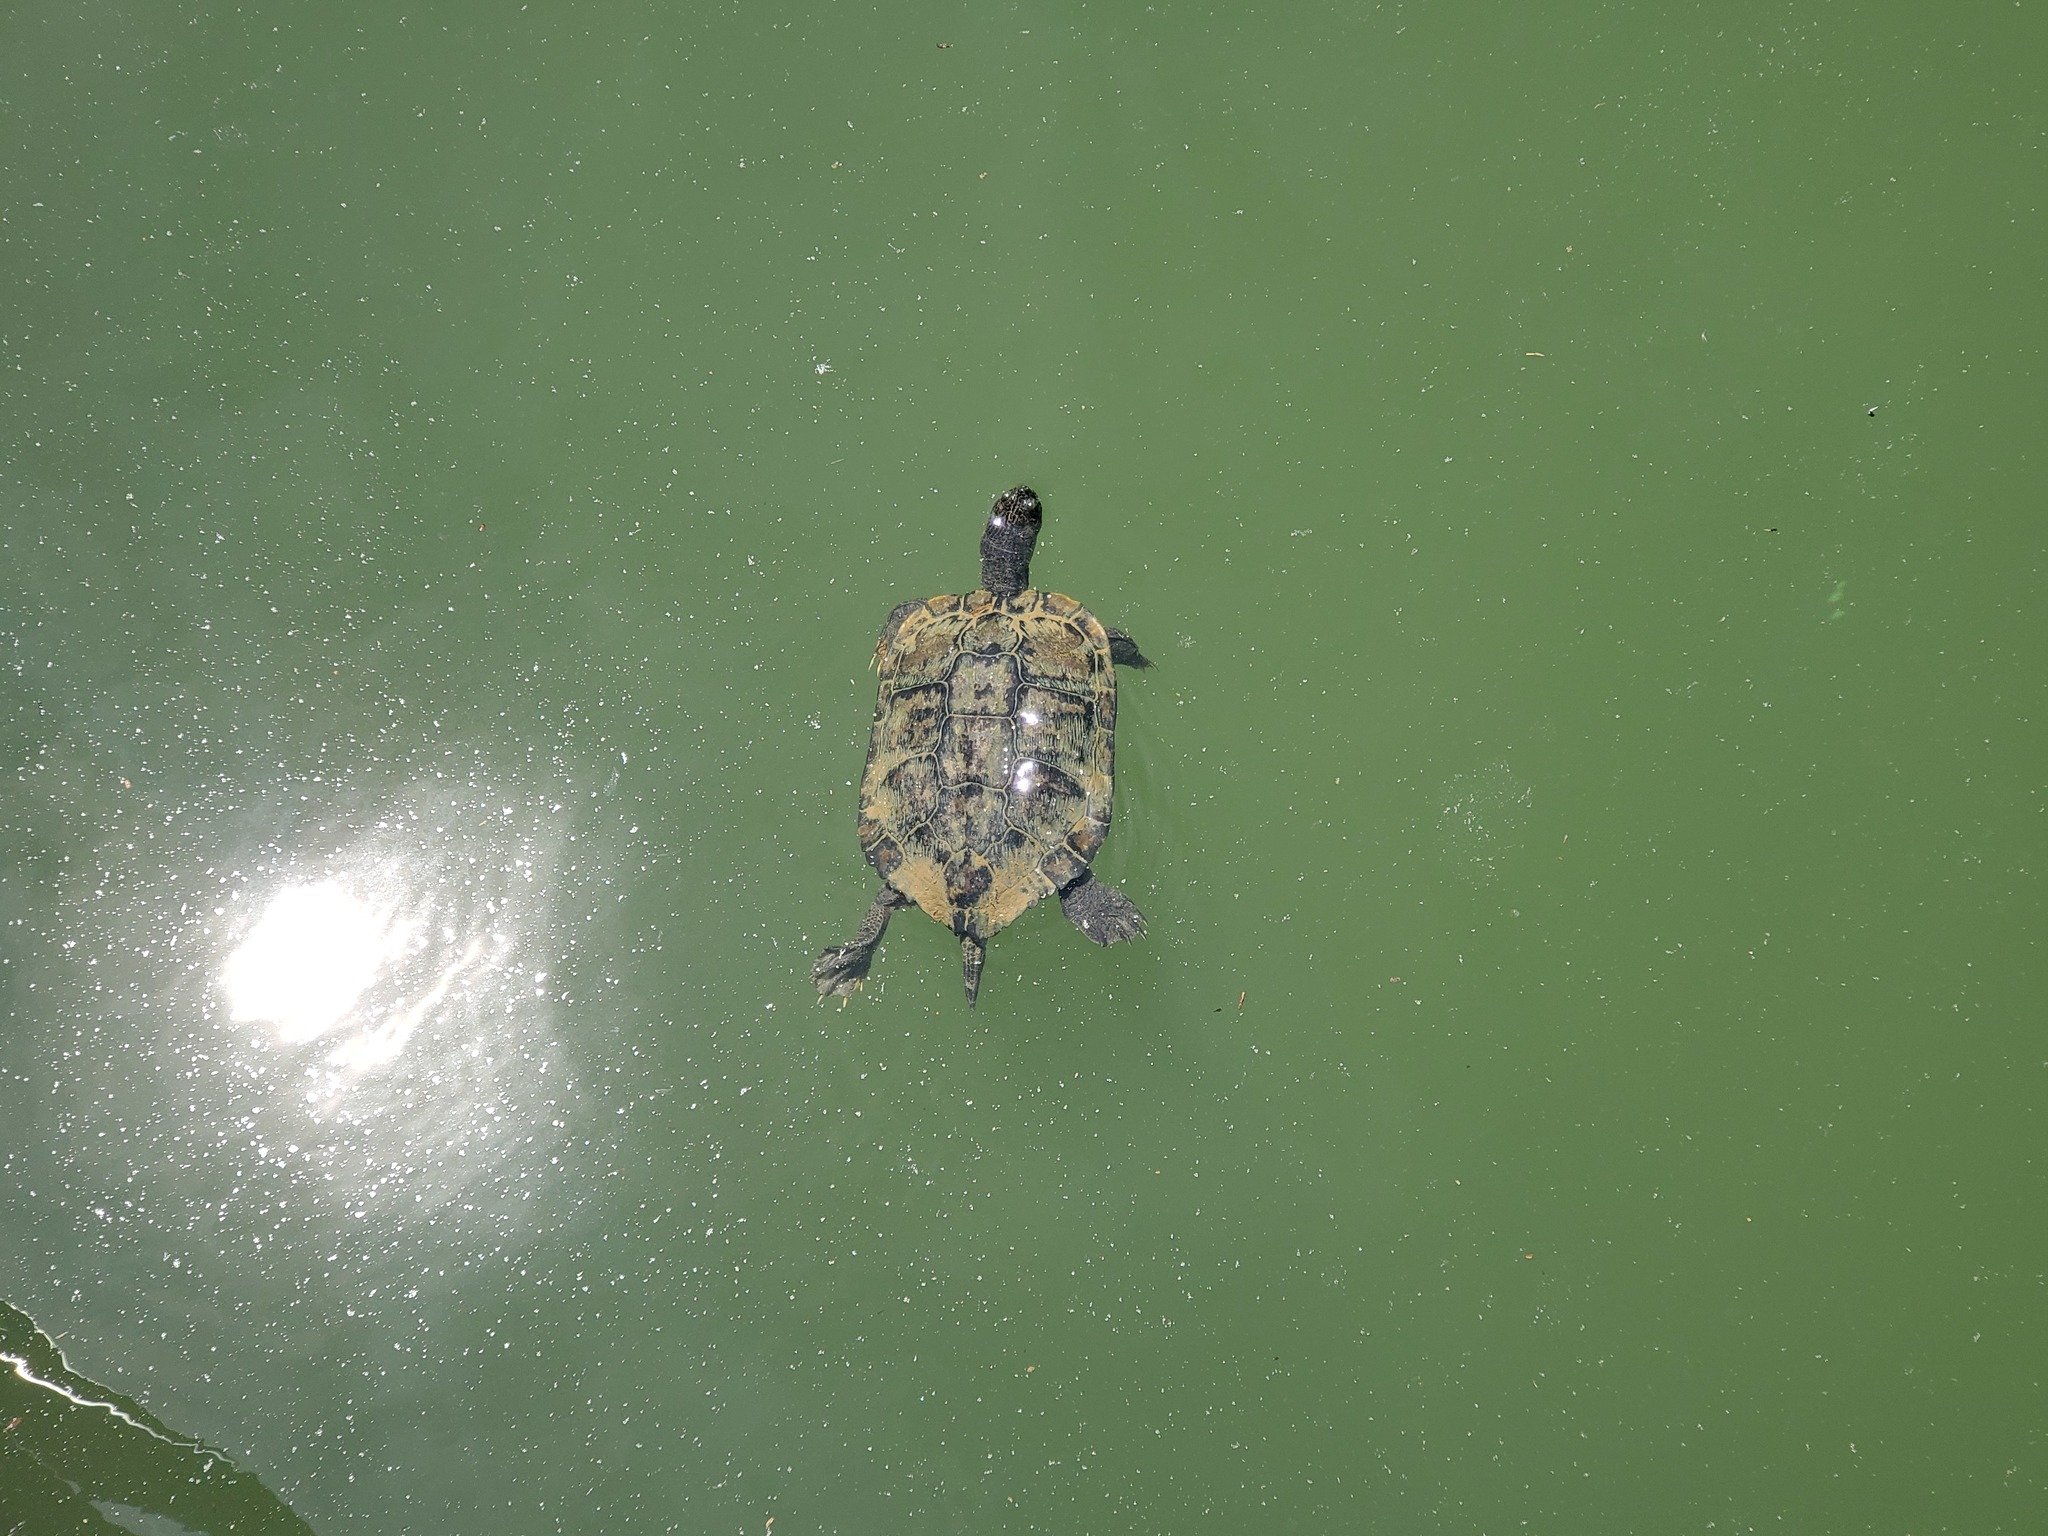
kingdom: Animalia
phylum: Chordata
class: Testudines
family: Emydidae
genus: Trachemys
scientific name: Trachemys scripta
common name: Slider
